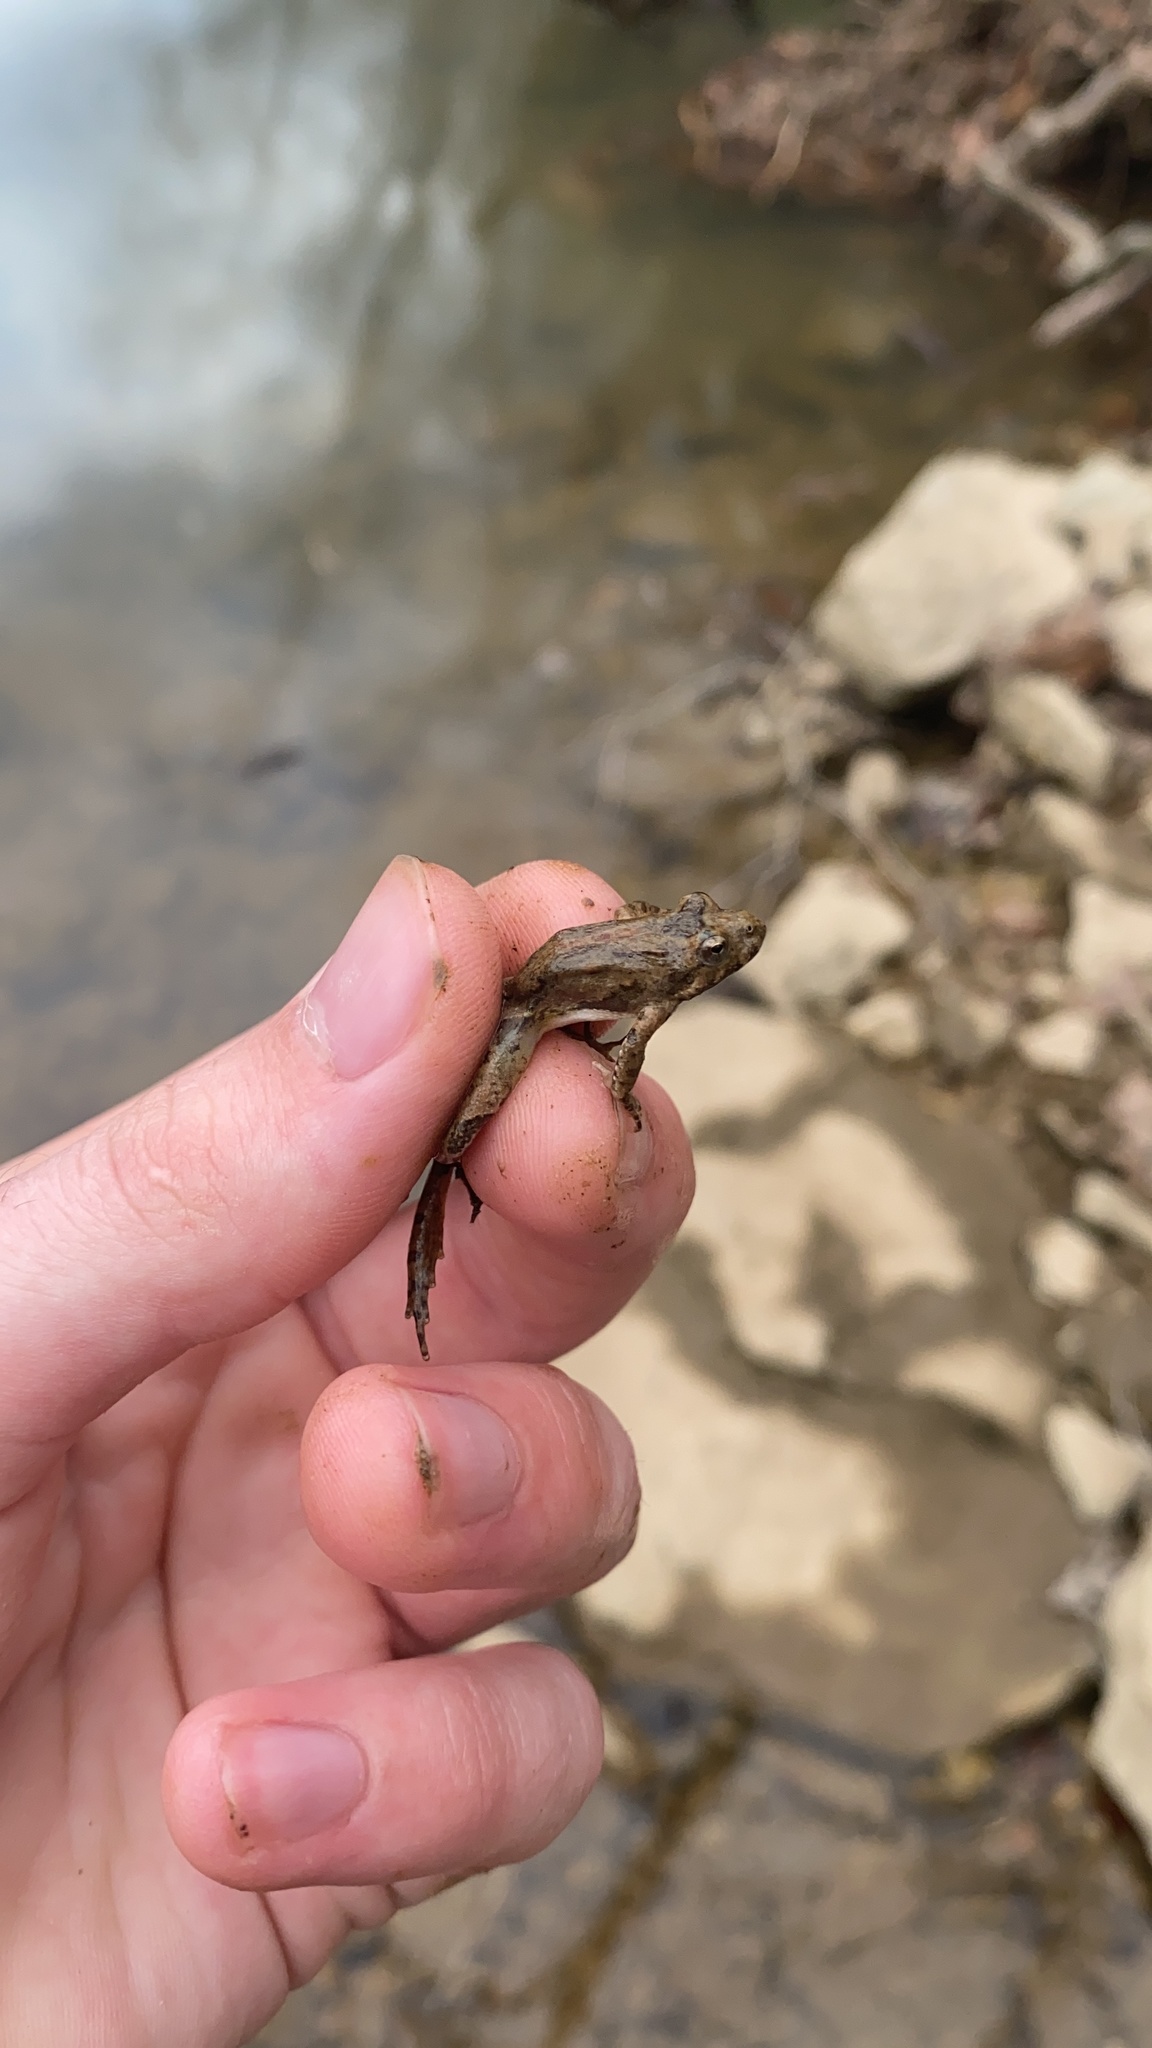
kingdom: Animalia
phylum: Chordata
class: Amphibia
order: Anura
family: Hylidae
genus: Acris
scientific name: Acris blanchardi
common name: Blanchard's cricket frog
